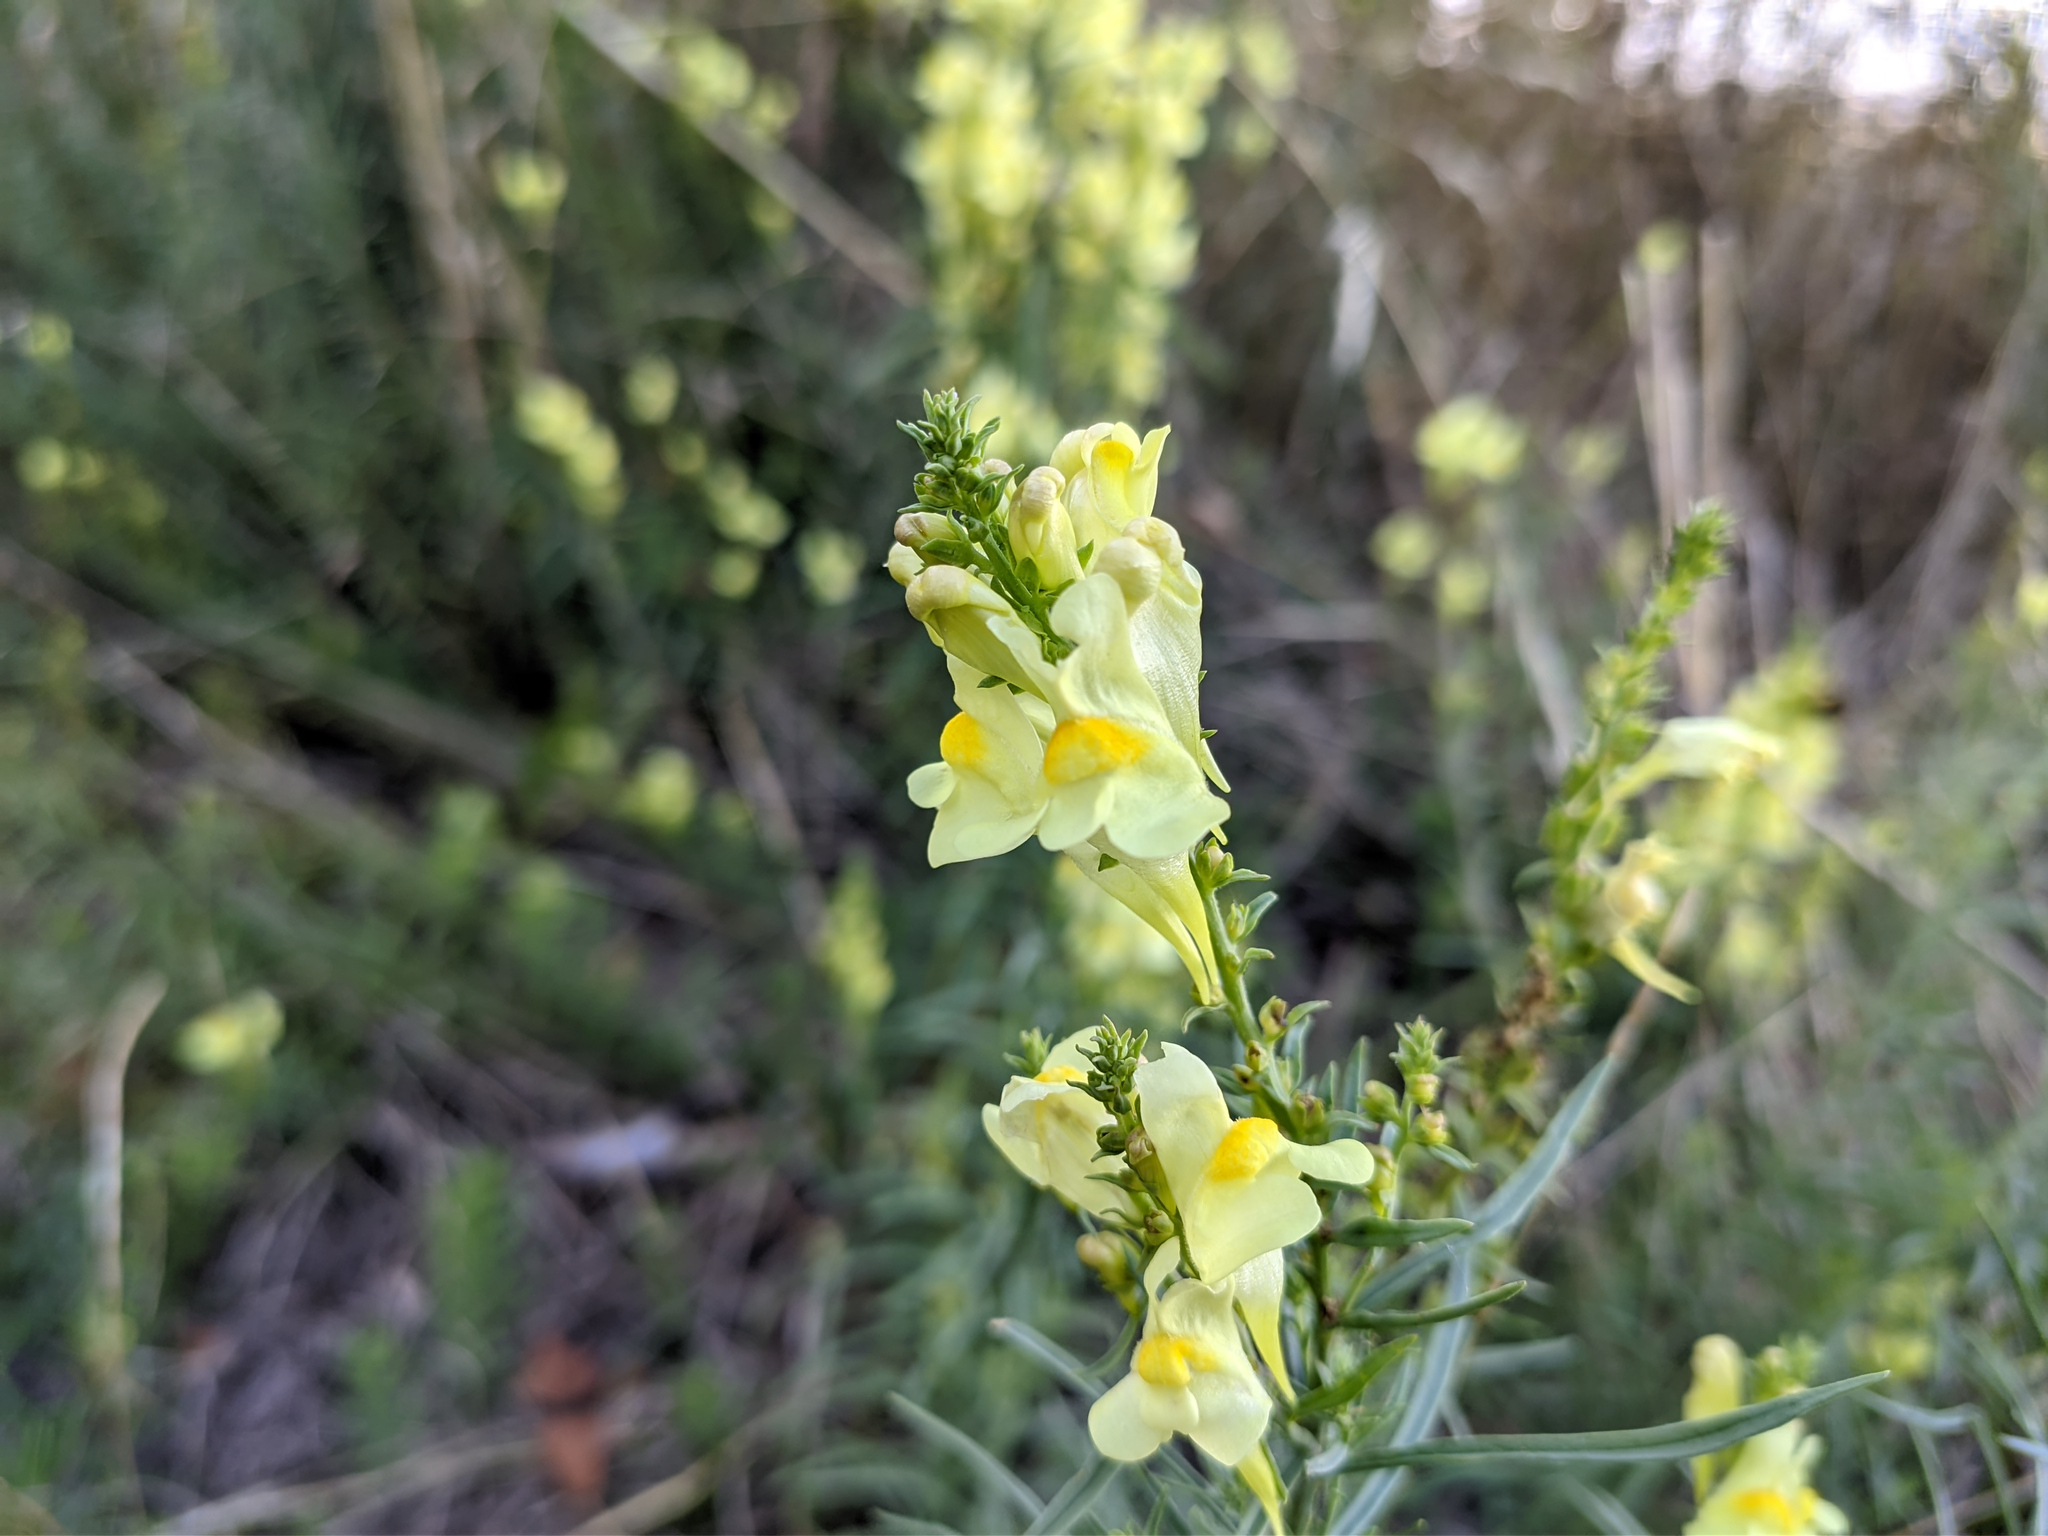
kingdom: Plantae
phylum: Tracheophyta
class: Magnoliopsida
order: Lamiales
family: Plantaginaceae
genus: Linaria
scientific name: Linaria vulgaris
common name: Butter and eggs
